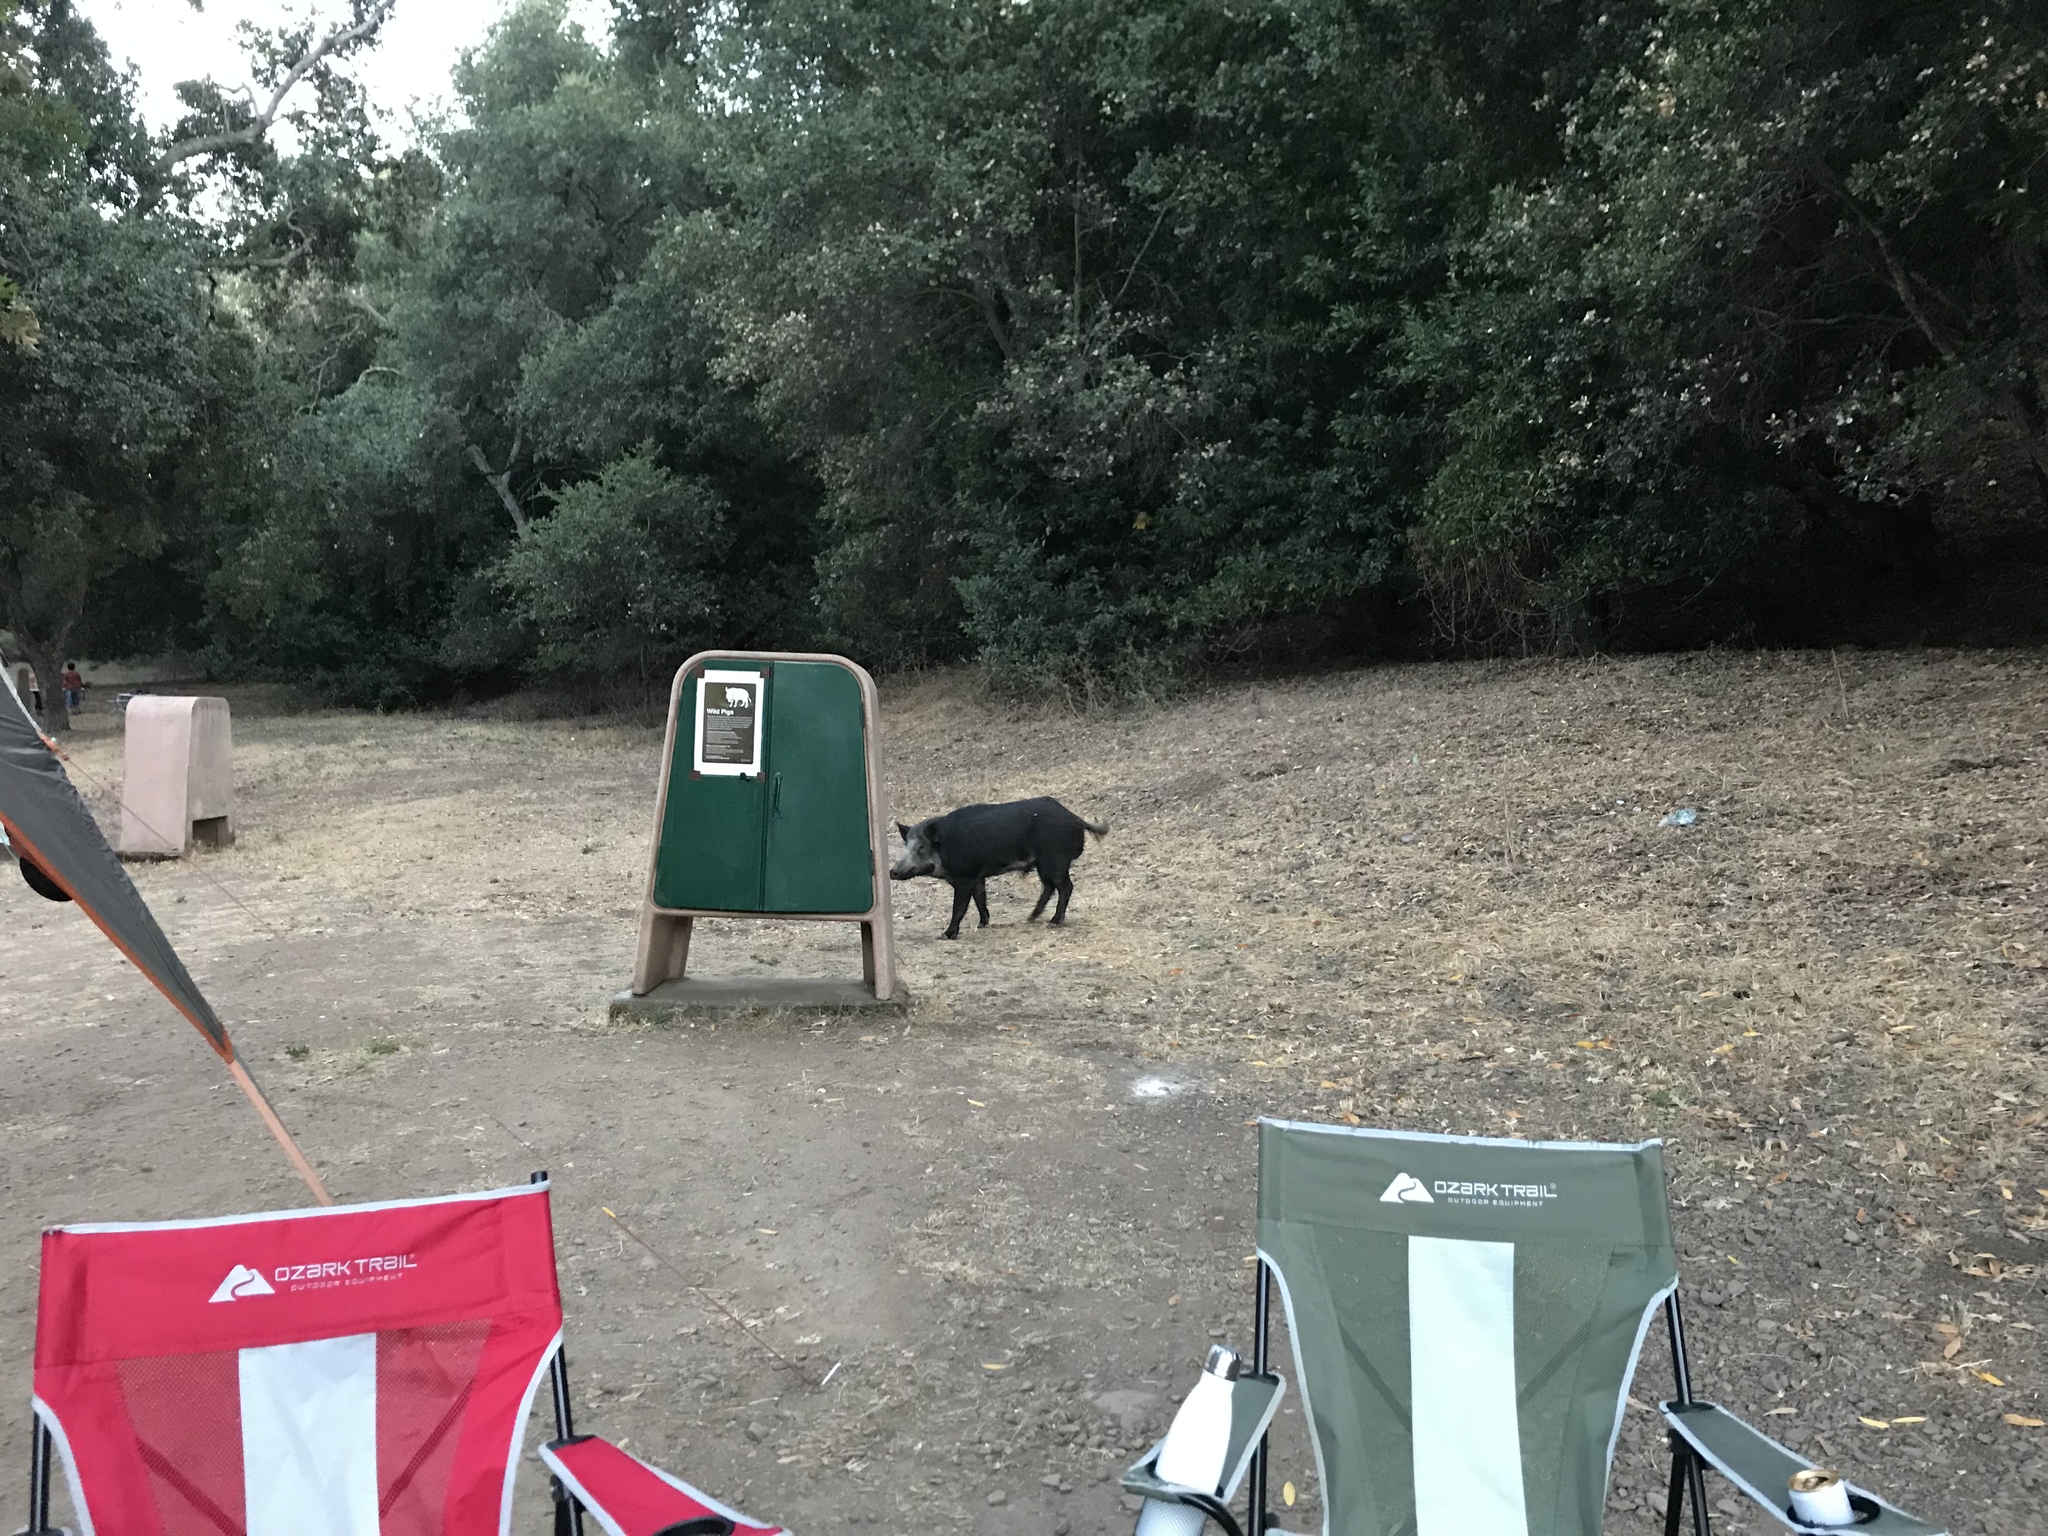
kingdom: Animalia
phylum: Chordata
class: Mammalia
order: Artiodactyla
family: Suidae
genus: Sus
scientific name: Sus scrofa
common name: Wild boar
